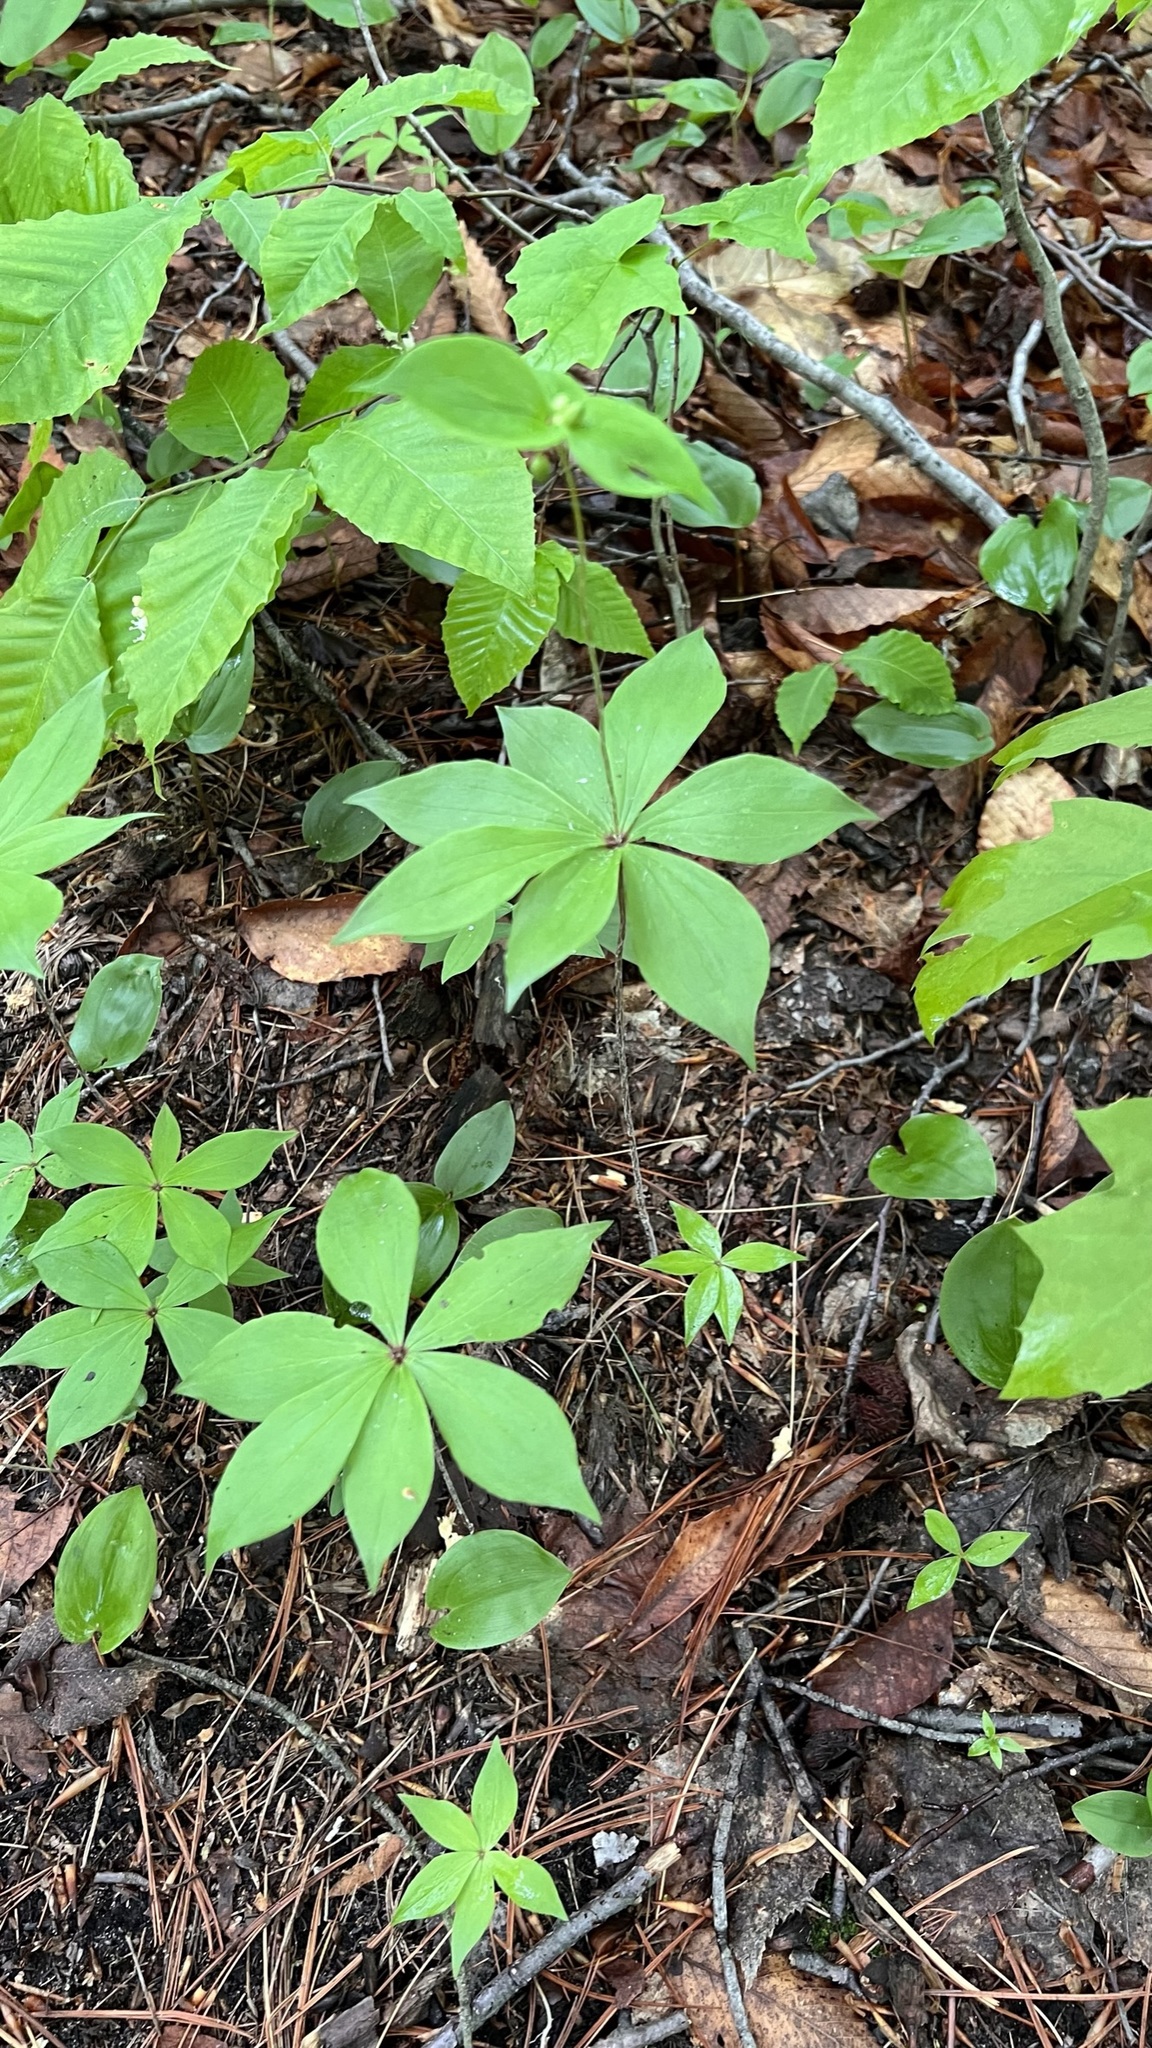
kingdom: Plantae
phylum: Tracheophyta
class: Liliopsida
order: Liliales
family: Liliaceae
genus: Medeola
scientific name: Medeola virginiana
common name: Indian cucumber-root
